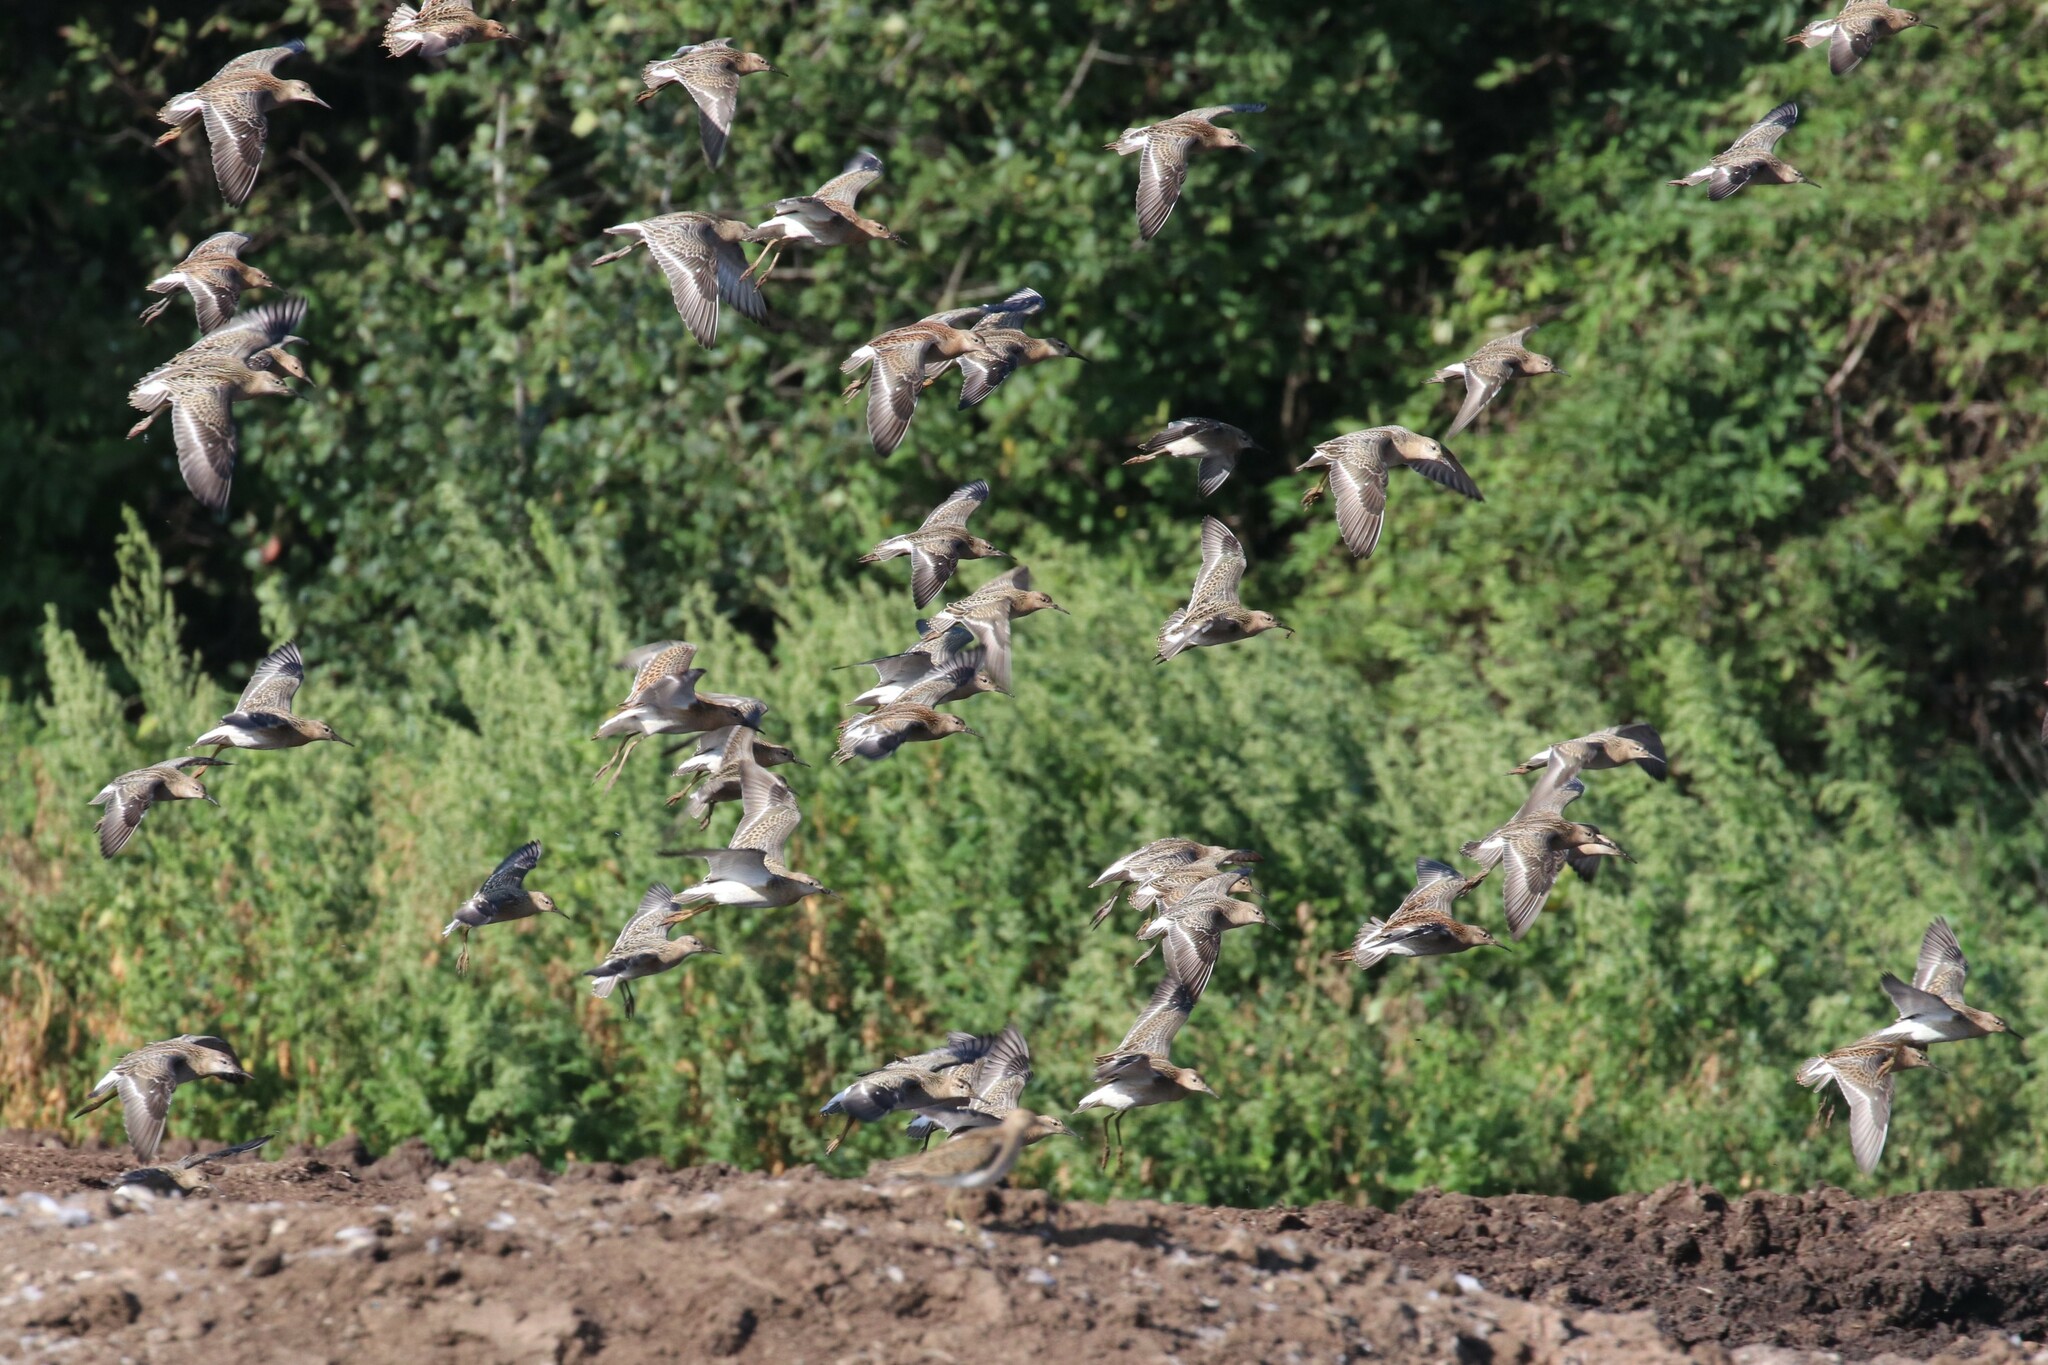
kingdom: Animalia
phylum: Chordata
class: Aves
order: Charadriiformes
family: Scolopacidae
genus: Calidris
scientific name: Calidris pugnax
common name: Ruff
